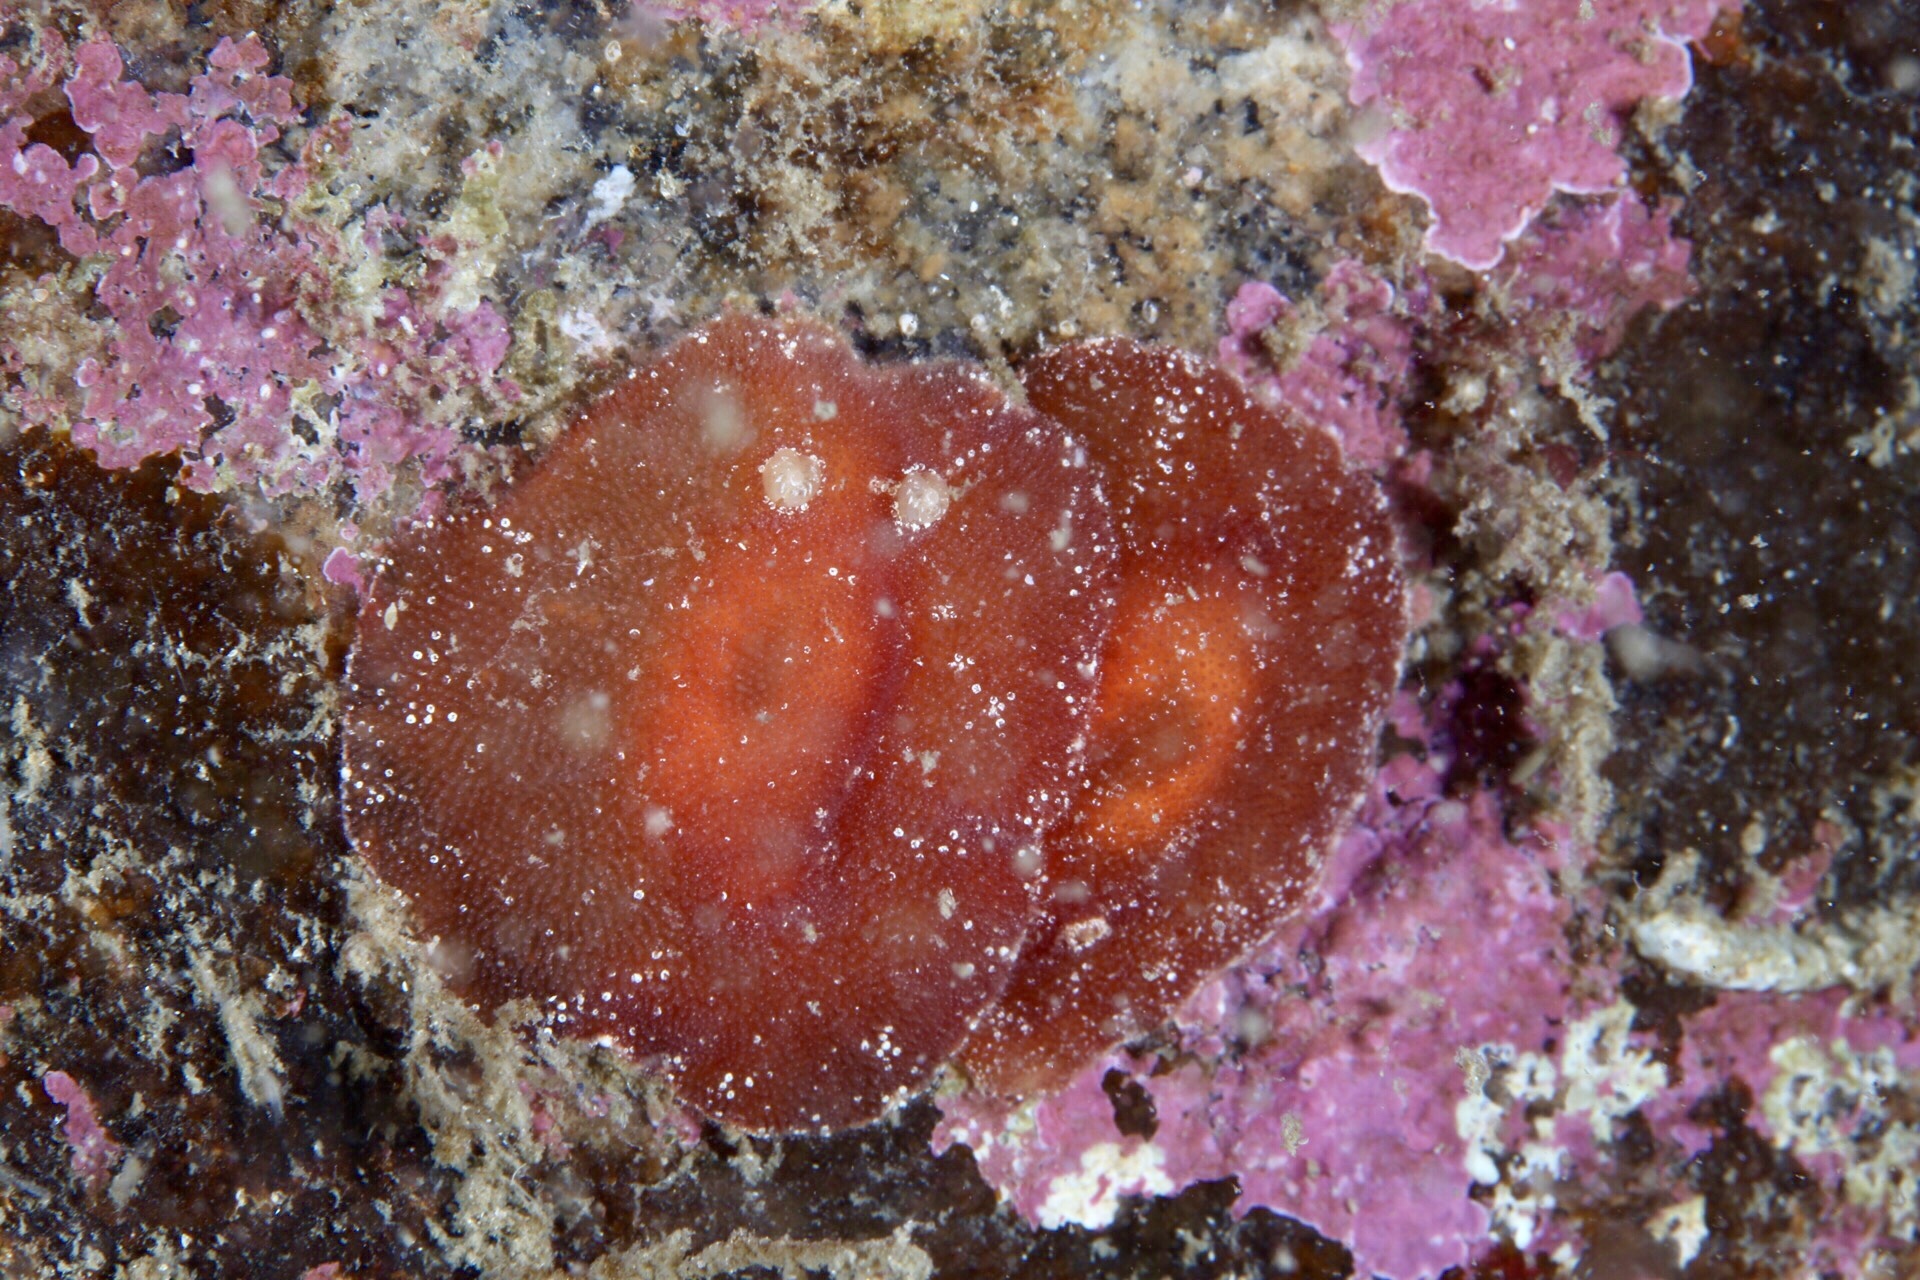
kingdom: Animalia
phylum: Mollusca
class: Gastropoda
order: Nudibranchia
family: Discodorididae
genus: Rostanga
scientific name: Rostanga rubra
